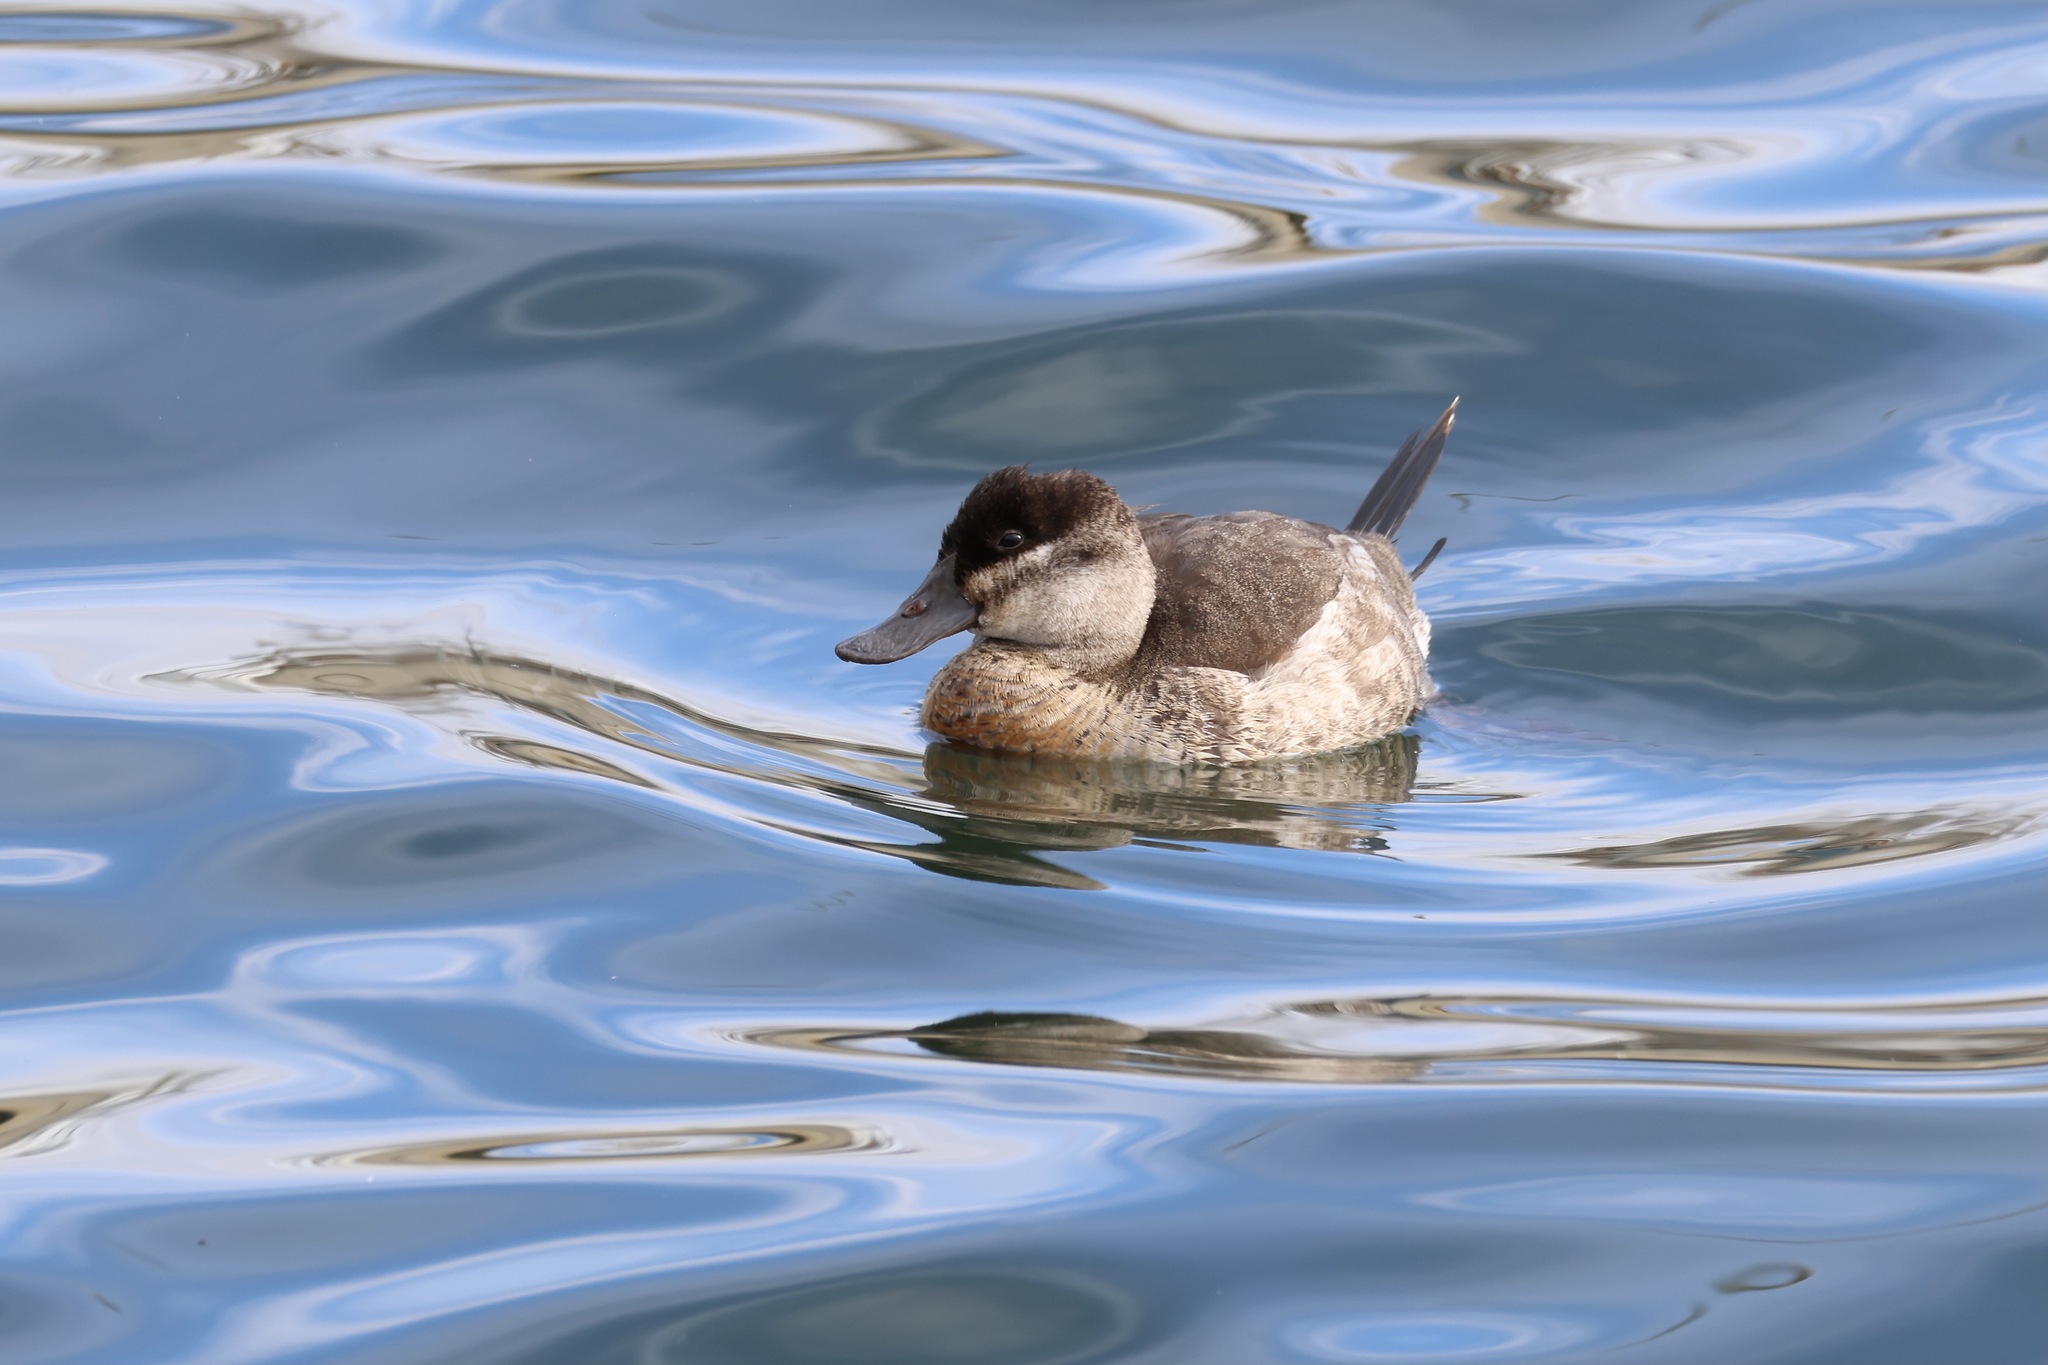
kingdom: Animalia
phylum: Chordata
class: Aves
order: Anseriformes
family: Anatidae
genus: Oxyura
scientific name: Oxyura jamaicensis
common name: Ruddy duck
